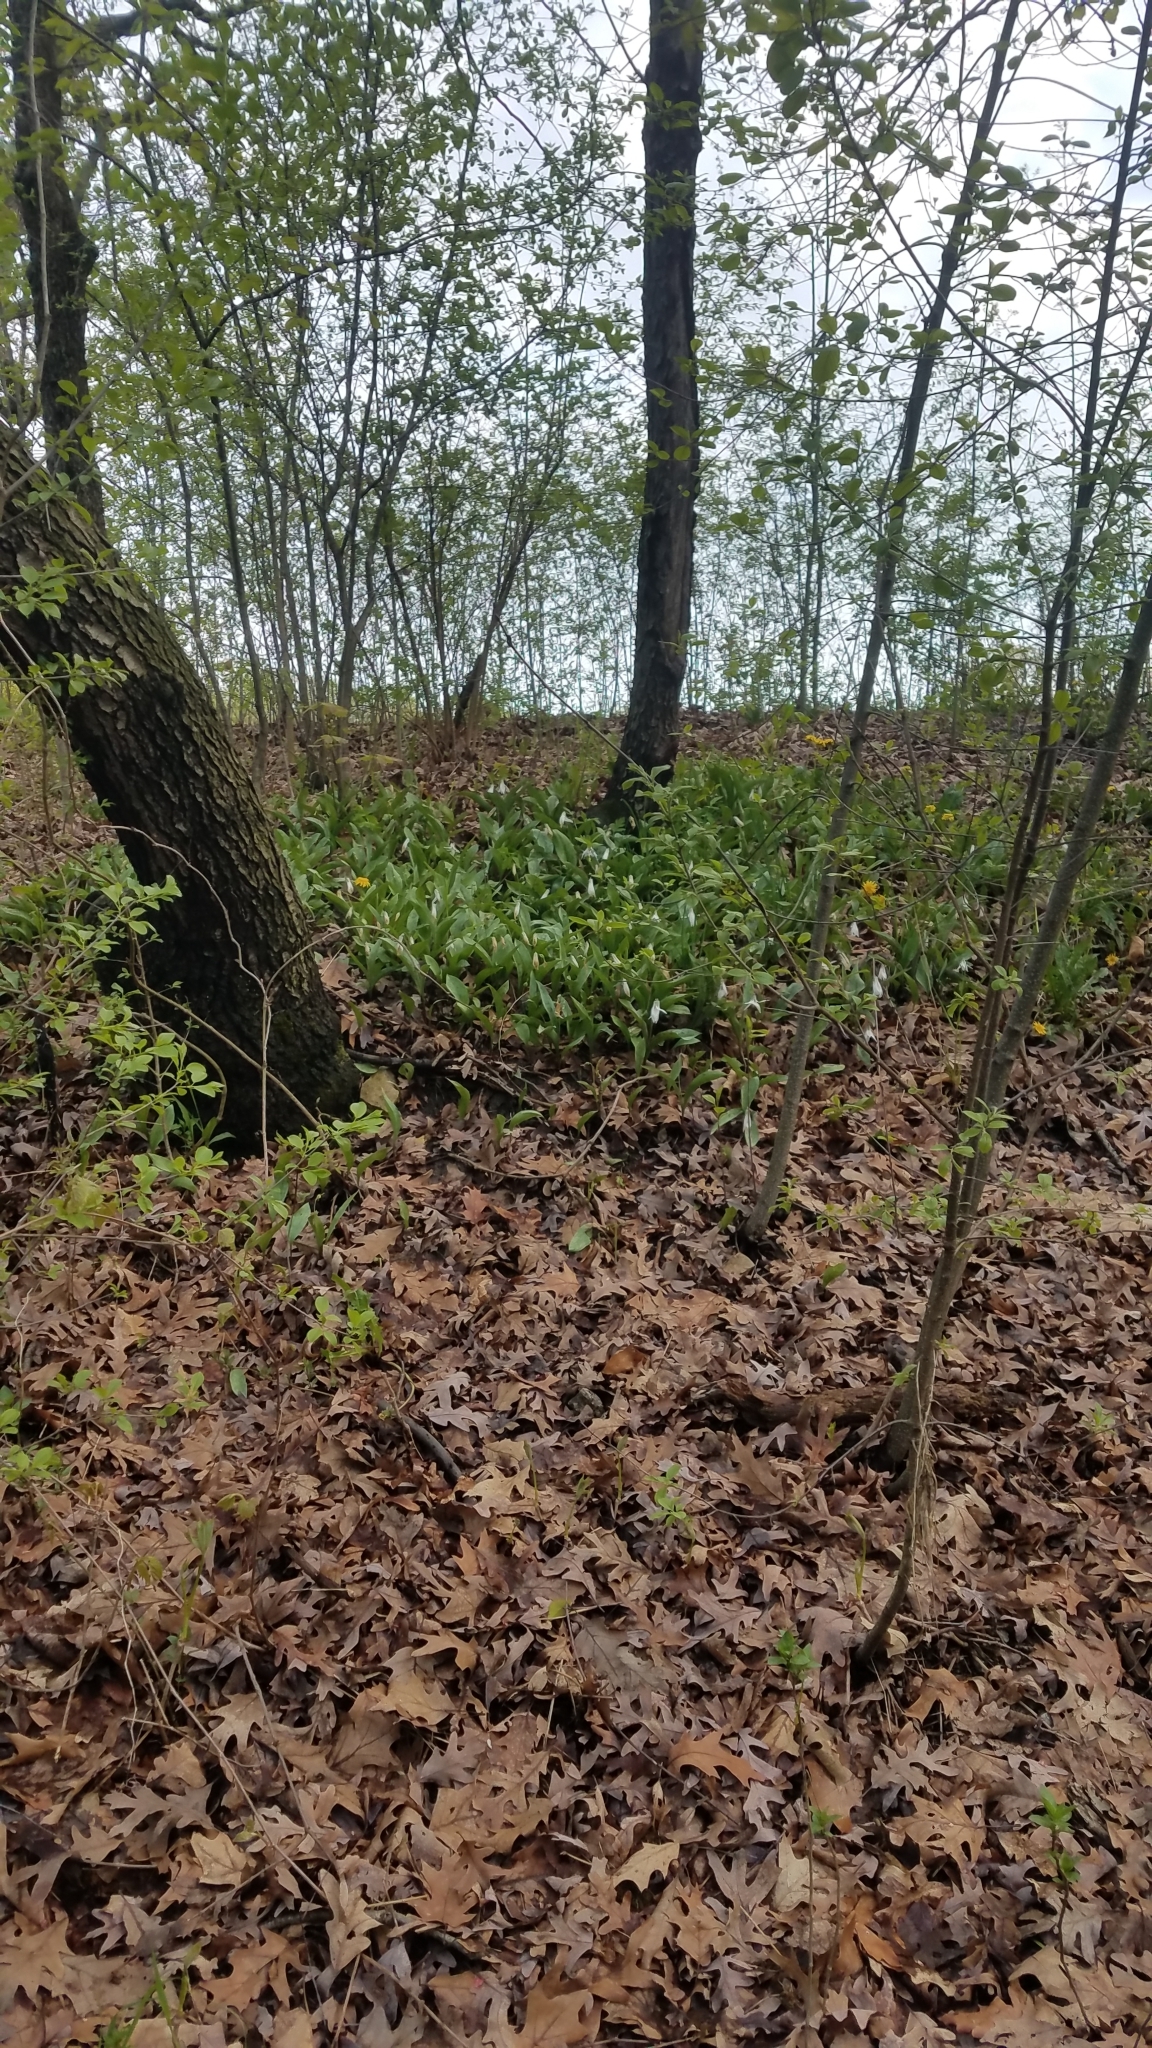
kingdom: Plantae
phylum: Tracheophyta
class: Liliopsida
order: Liliales
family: Liliaceae
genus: Erythronium
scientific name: Erythronium albidum
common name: White trout-lily
